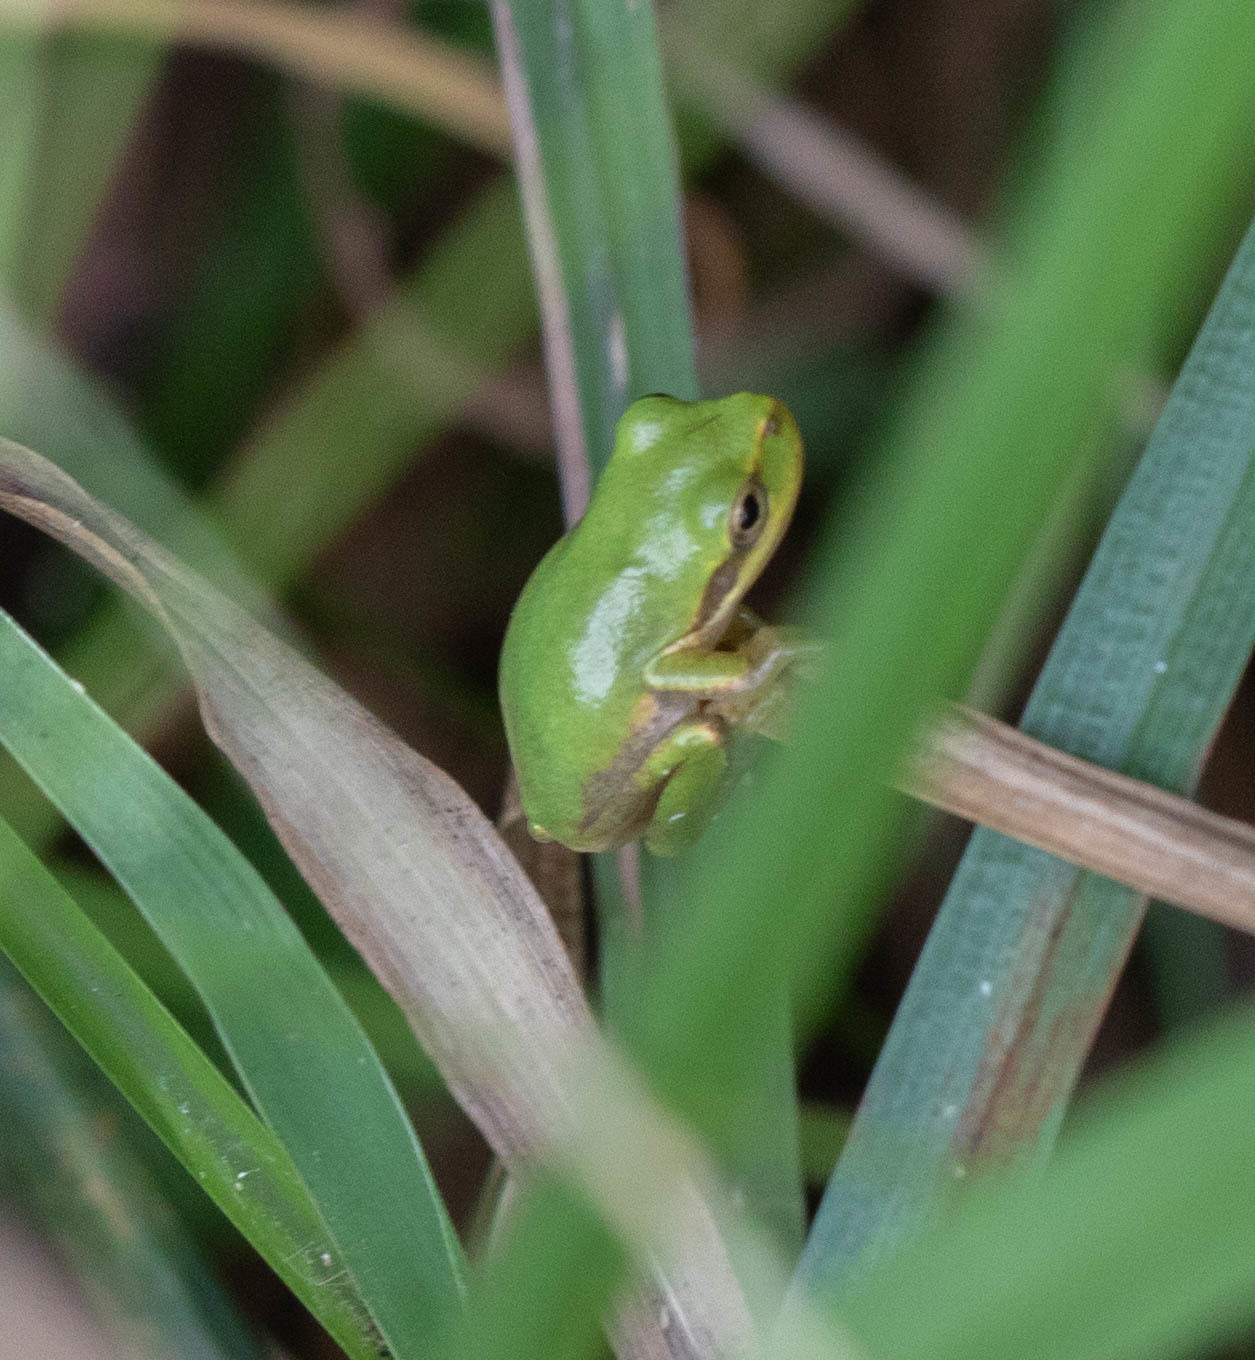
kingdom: Animalia
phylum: Chordata
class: Amphibia
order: Anura
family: Hylidae
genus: Dryophytes
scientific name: Dryophytes squirellus
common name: Squirrel treefrog
